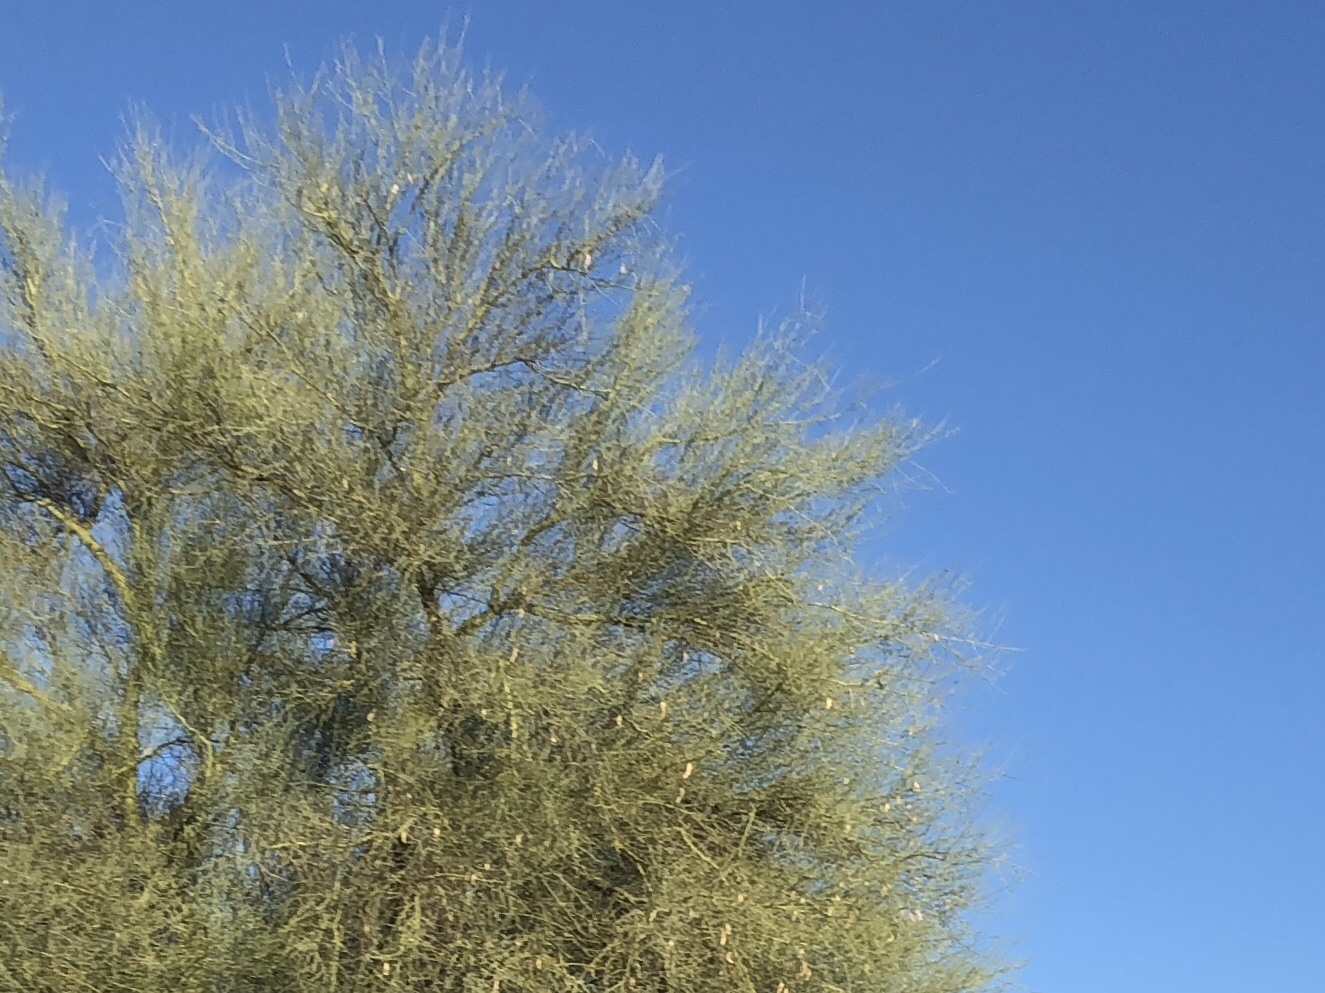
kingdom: Plantae
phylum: Tracheophyta
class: Magnoliopsida
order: Fabales
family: Fabaceae
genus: Parkinsonia
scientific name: Parkinsonia florida
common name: Blue paloverde
